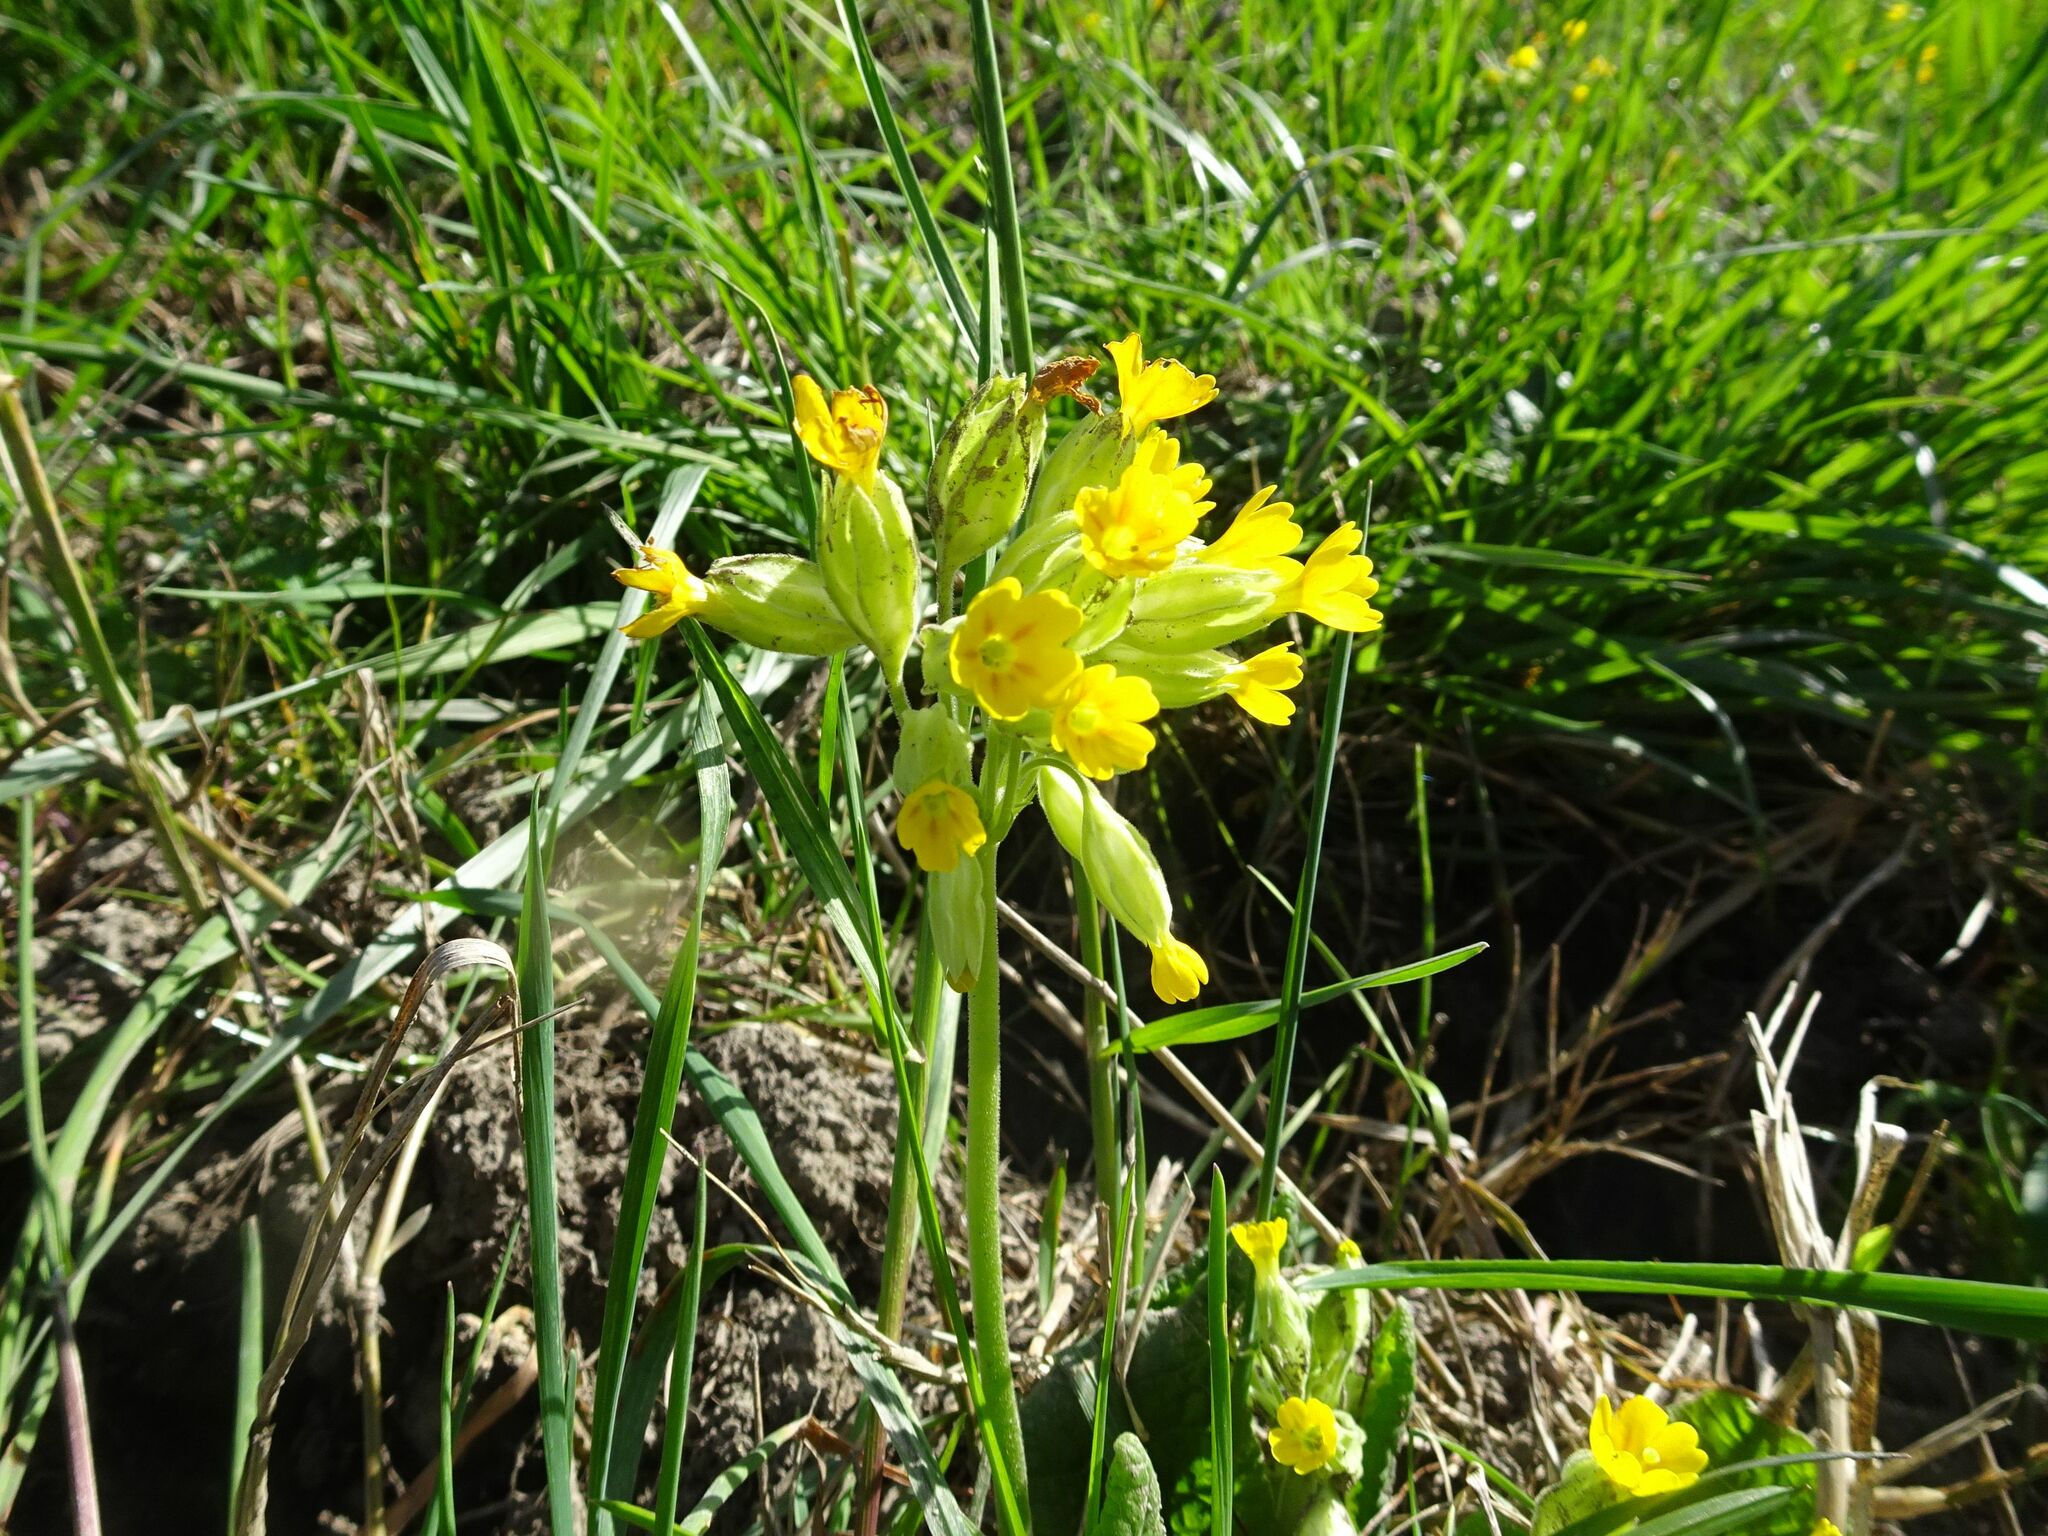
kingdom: Plantae
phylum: Tracheophyta
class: Magnoliopsida
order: Ericales
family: Primulaceae
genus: Primula
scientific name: Primula veris
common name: Cowslip
